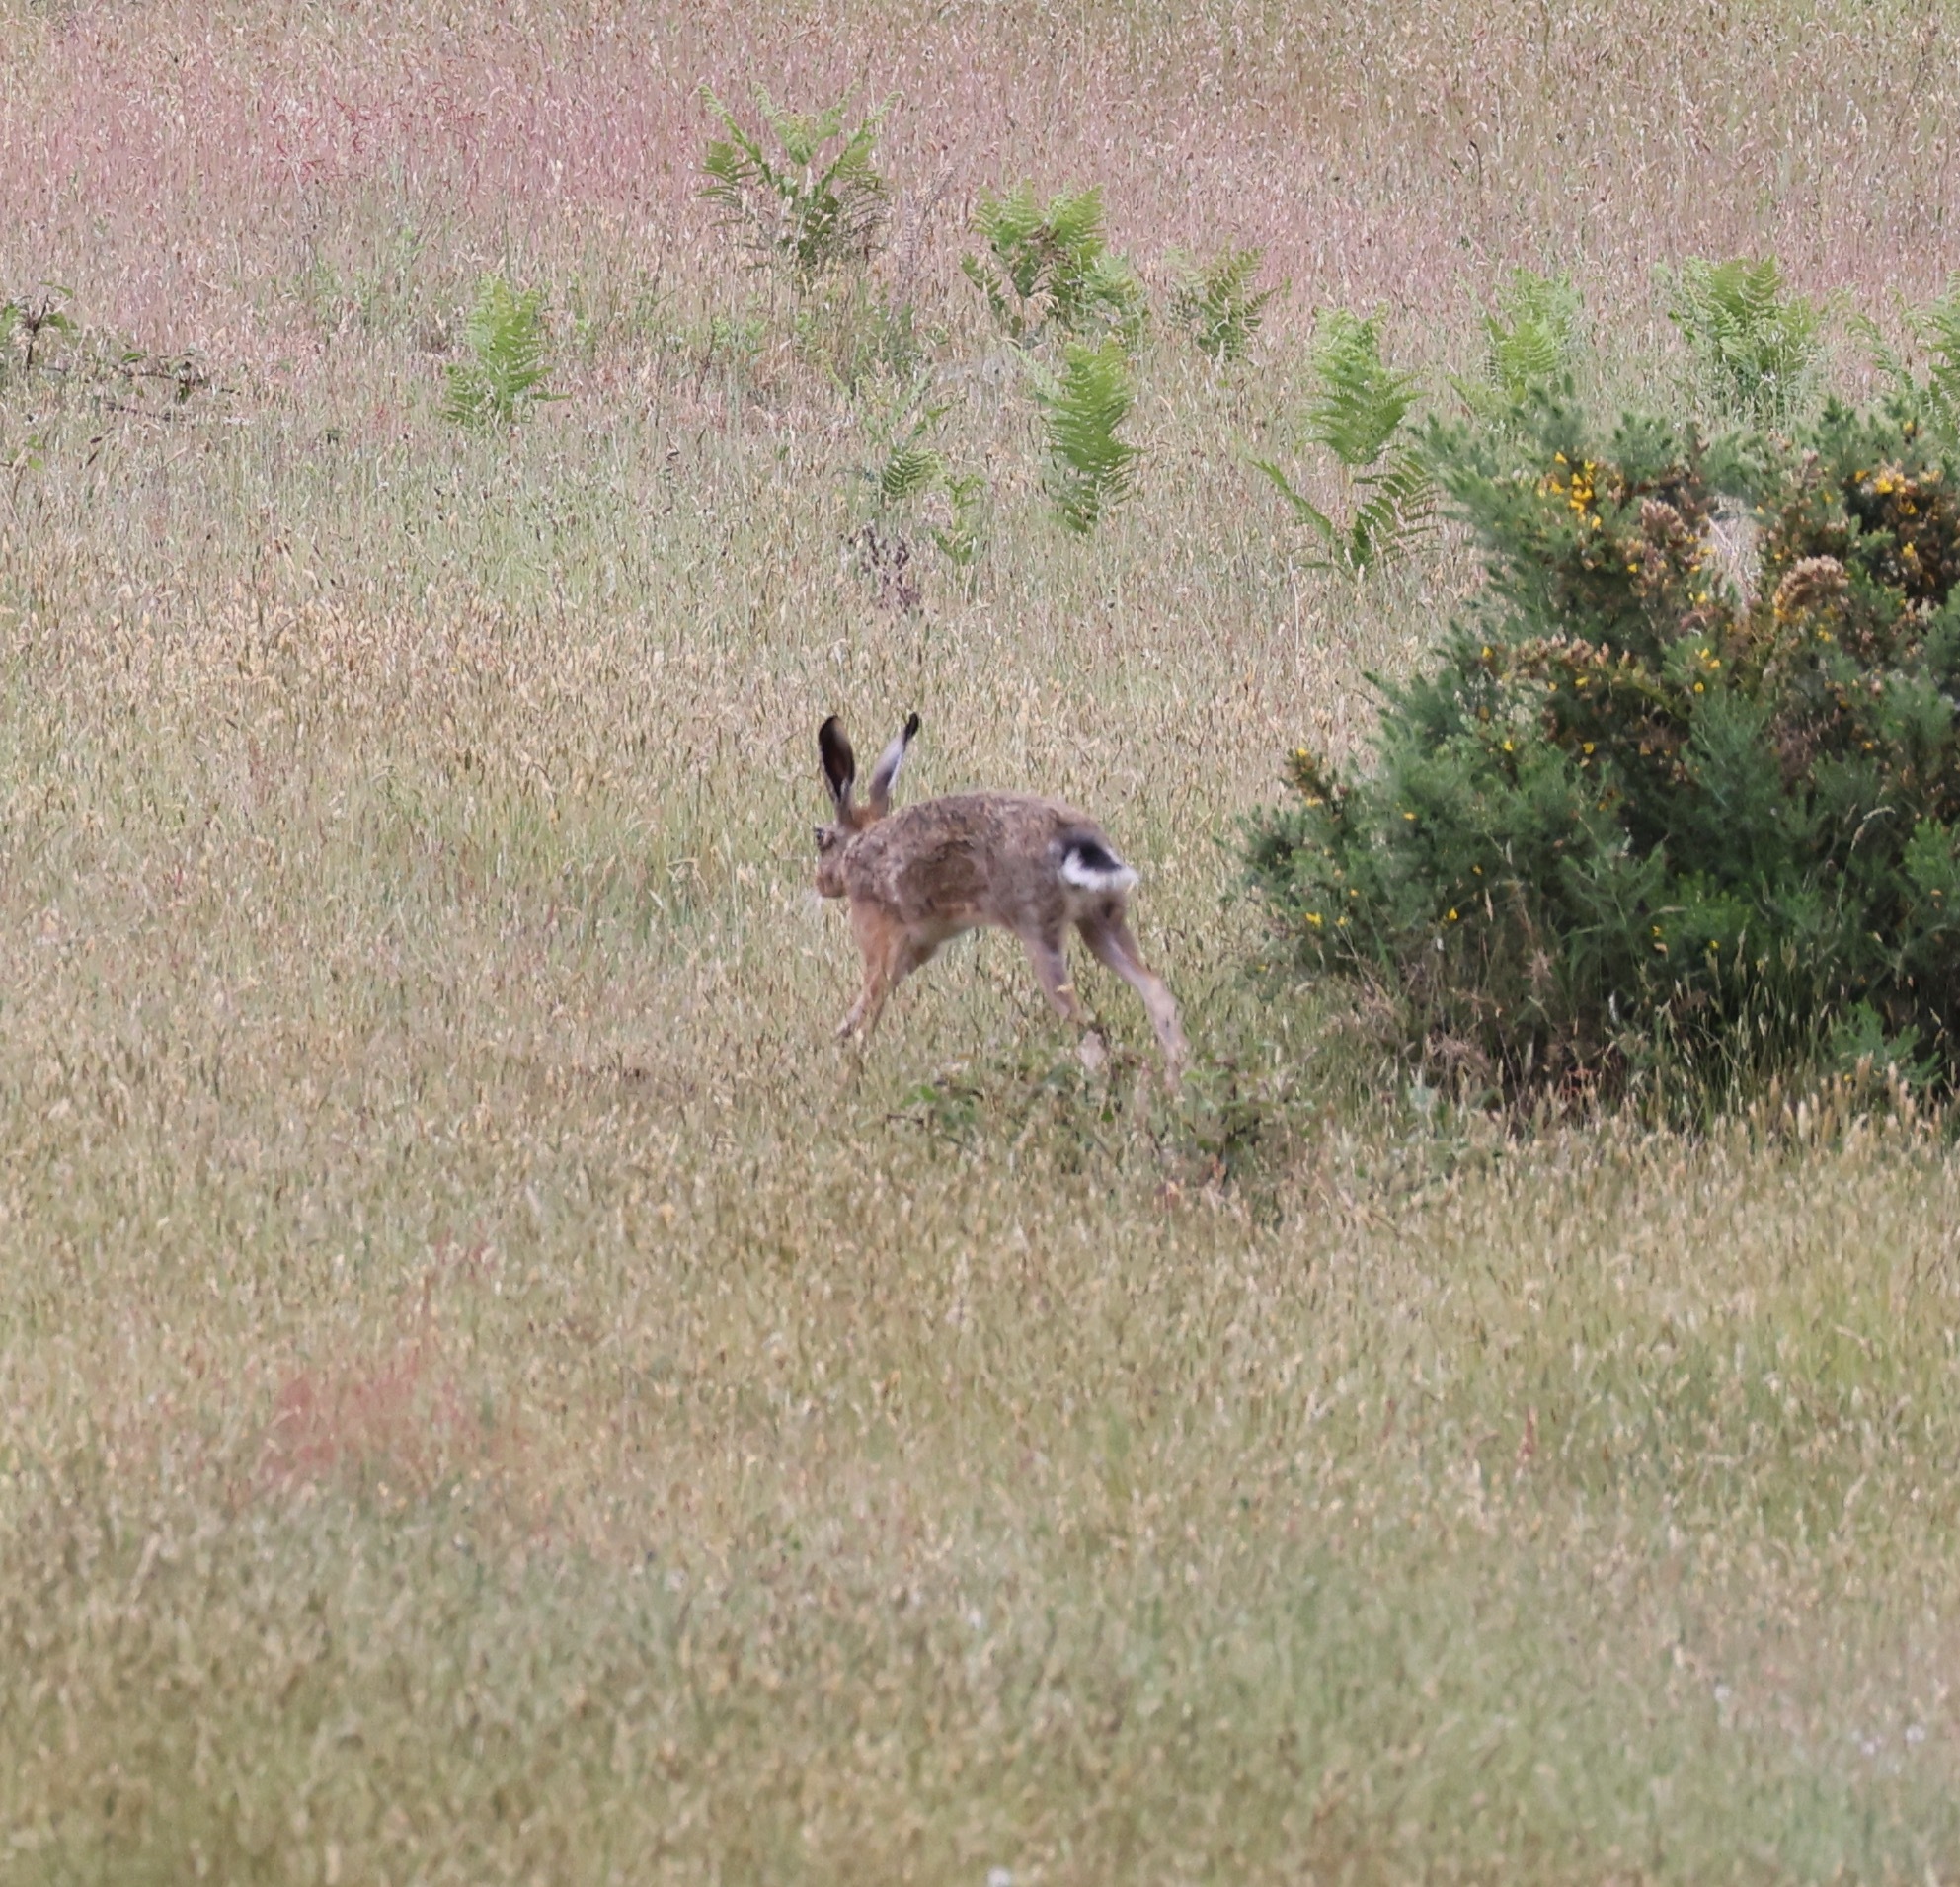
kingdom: Animalia
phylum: Chordata
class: Mammalia
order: Lagomorpha
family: Leporidae
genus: Lepus
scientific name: Lepus europaeus
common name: European hare
